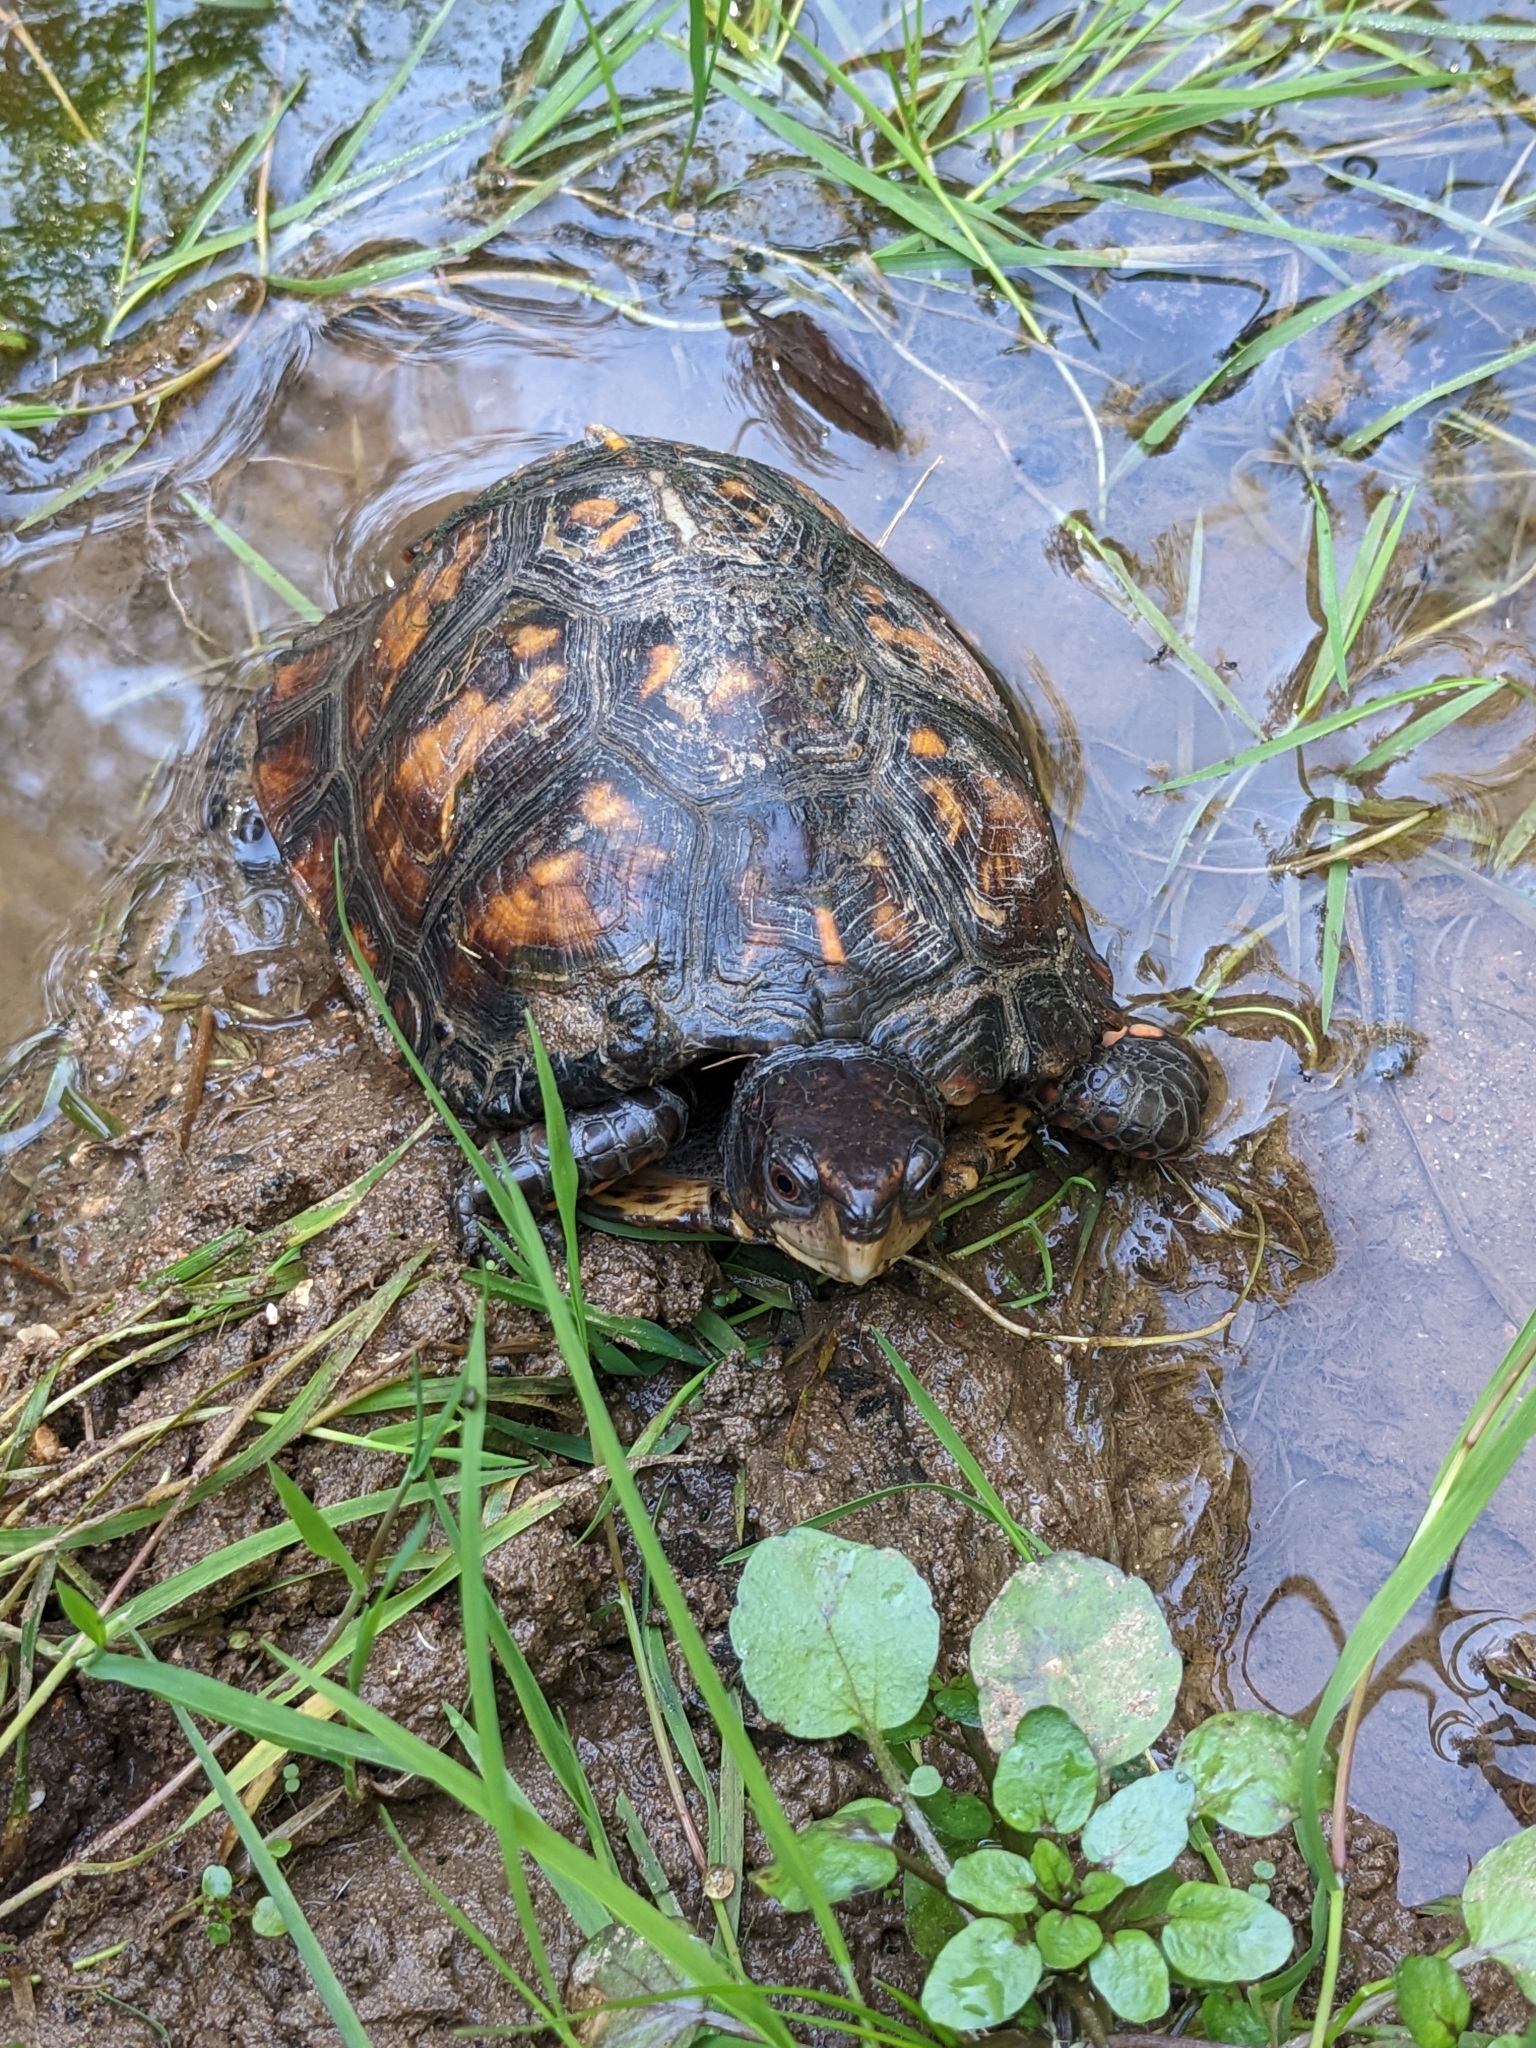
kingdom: Animalia
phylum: Chordata
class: Testudines
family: Emydidae
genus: Terrapene
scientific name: Terrapene carolina
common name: Common box turtle
